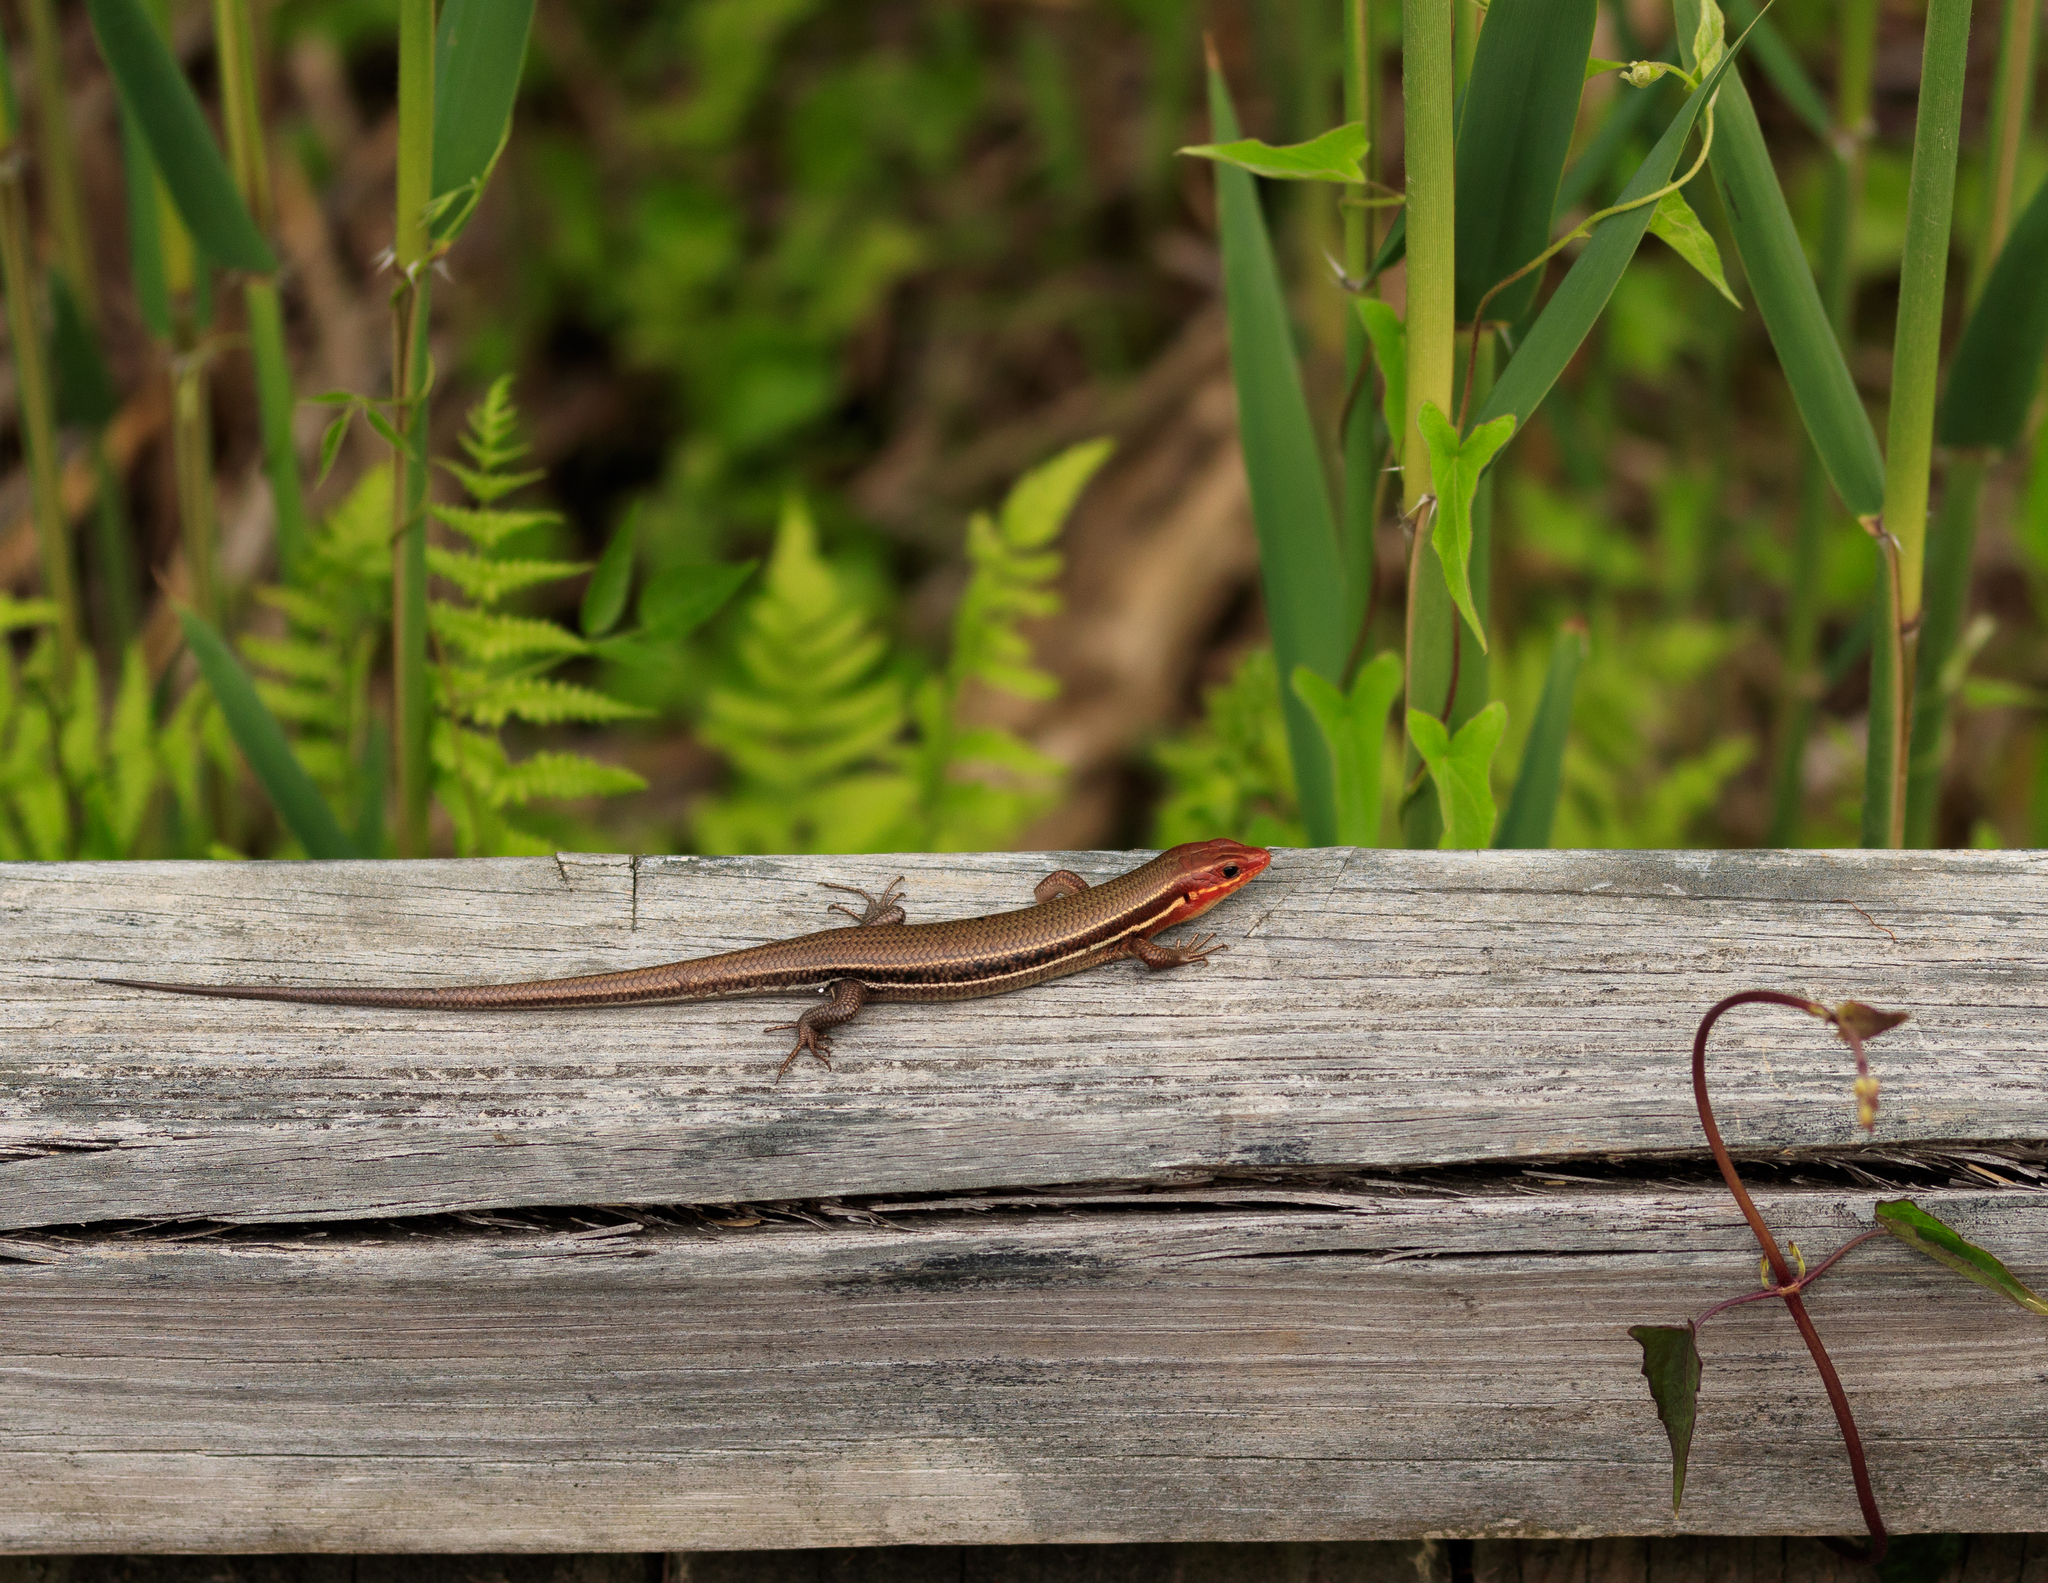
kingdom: Animalia
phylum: Chordata
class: Squamata
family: Scincidae
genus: Plestiodon
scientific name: Plestiodon inexpectatus
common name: Southeastern five-lined skink
